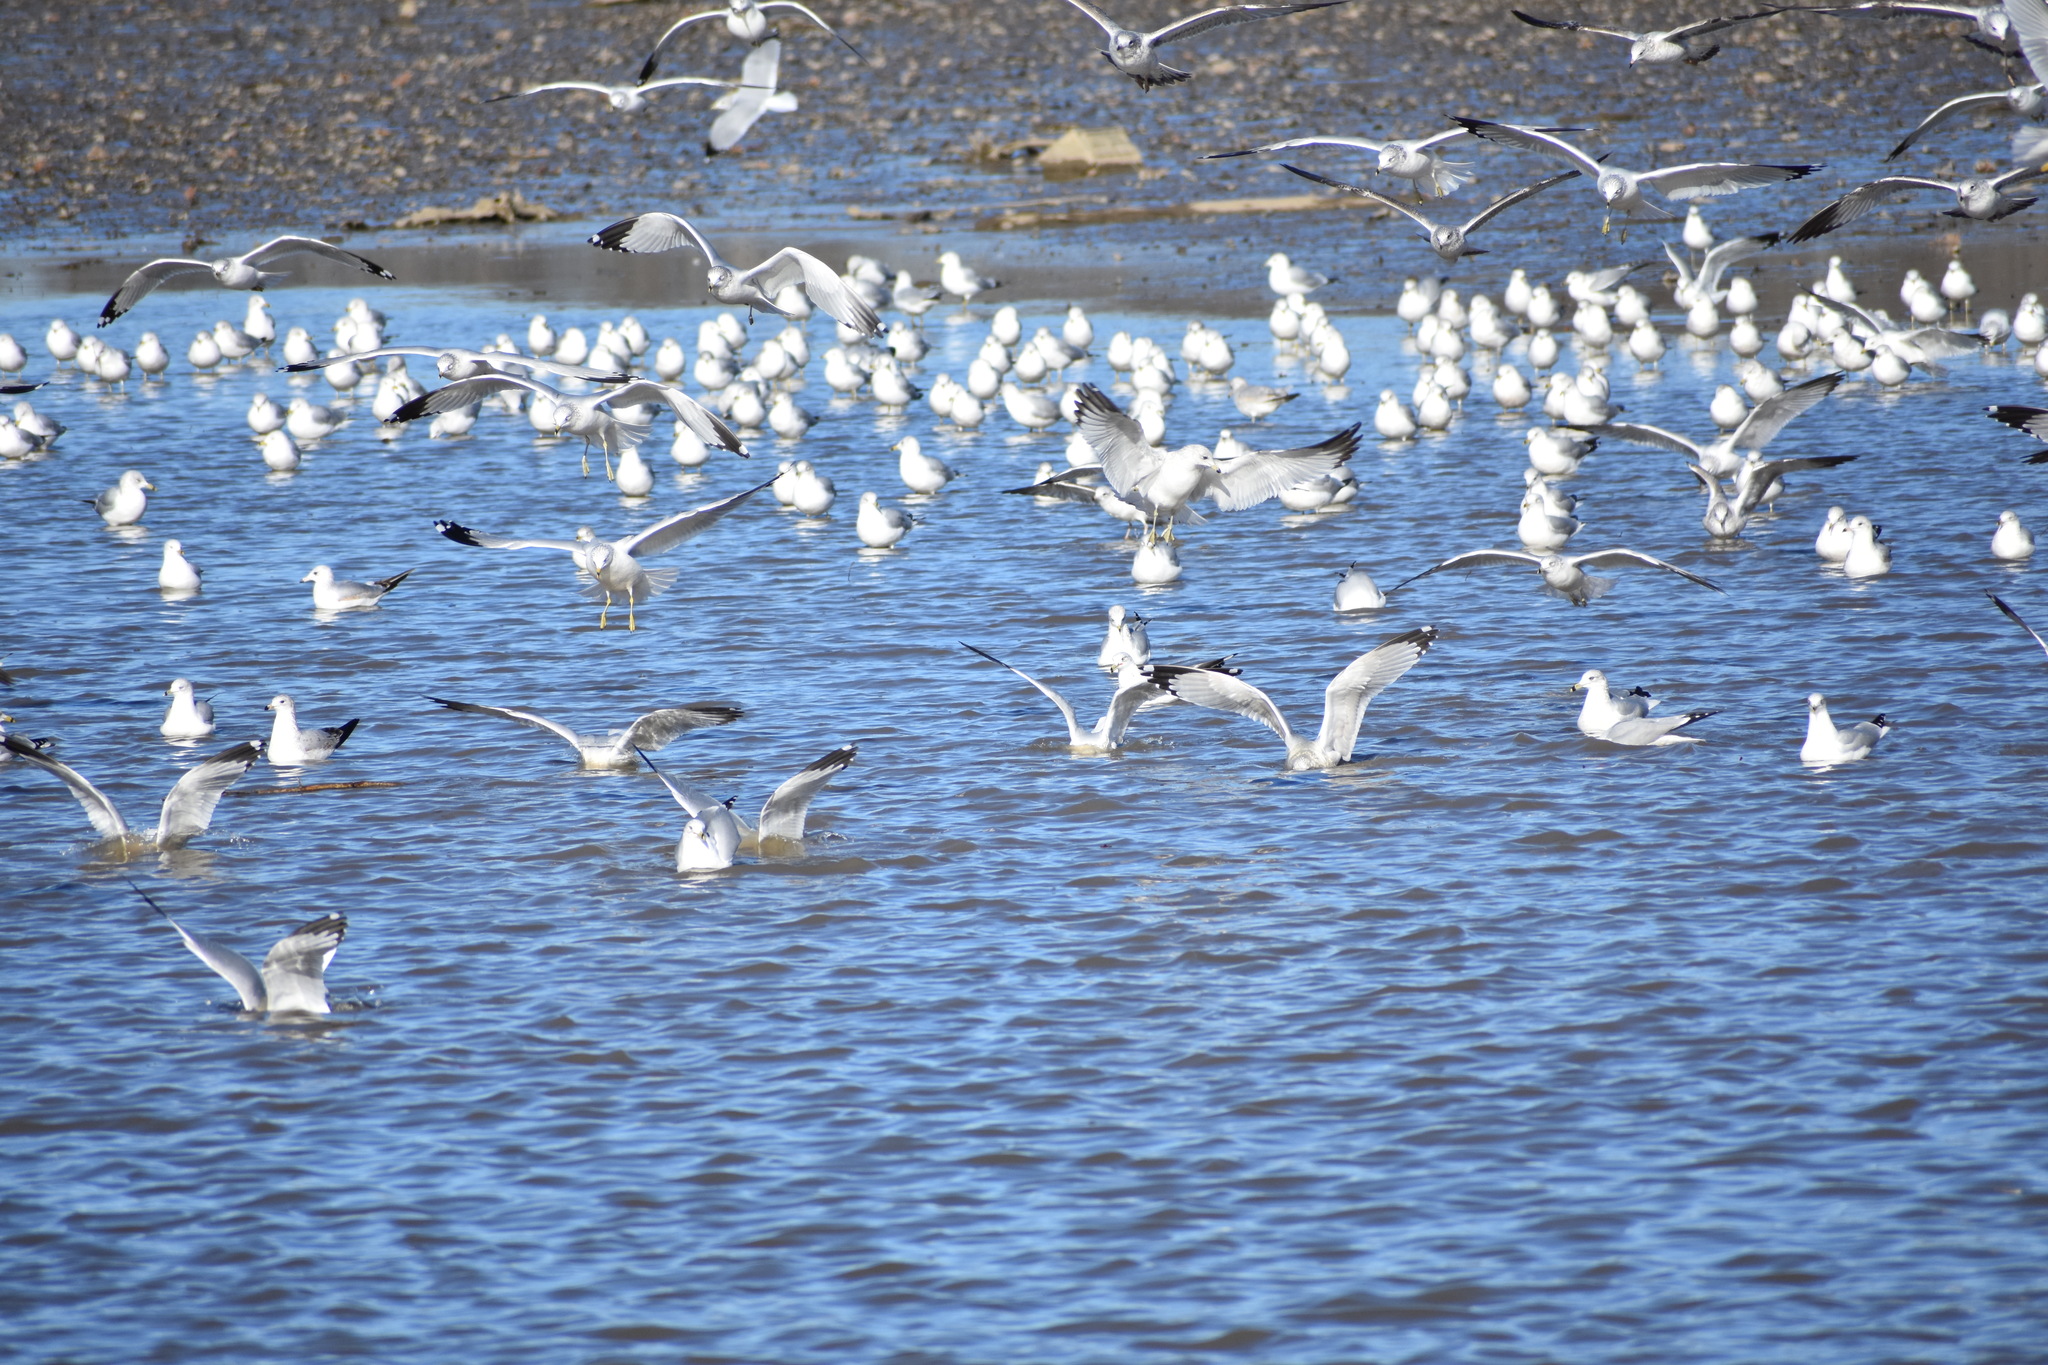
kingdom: Animalia
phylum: Chordata
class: Aves
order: Charadriiformes
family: Laridae
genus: Larus
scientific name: Larus delawarensis
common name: Ring-billed gull
